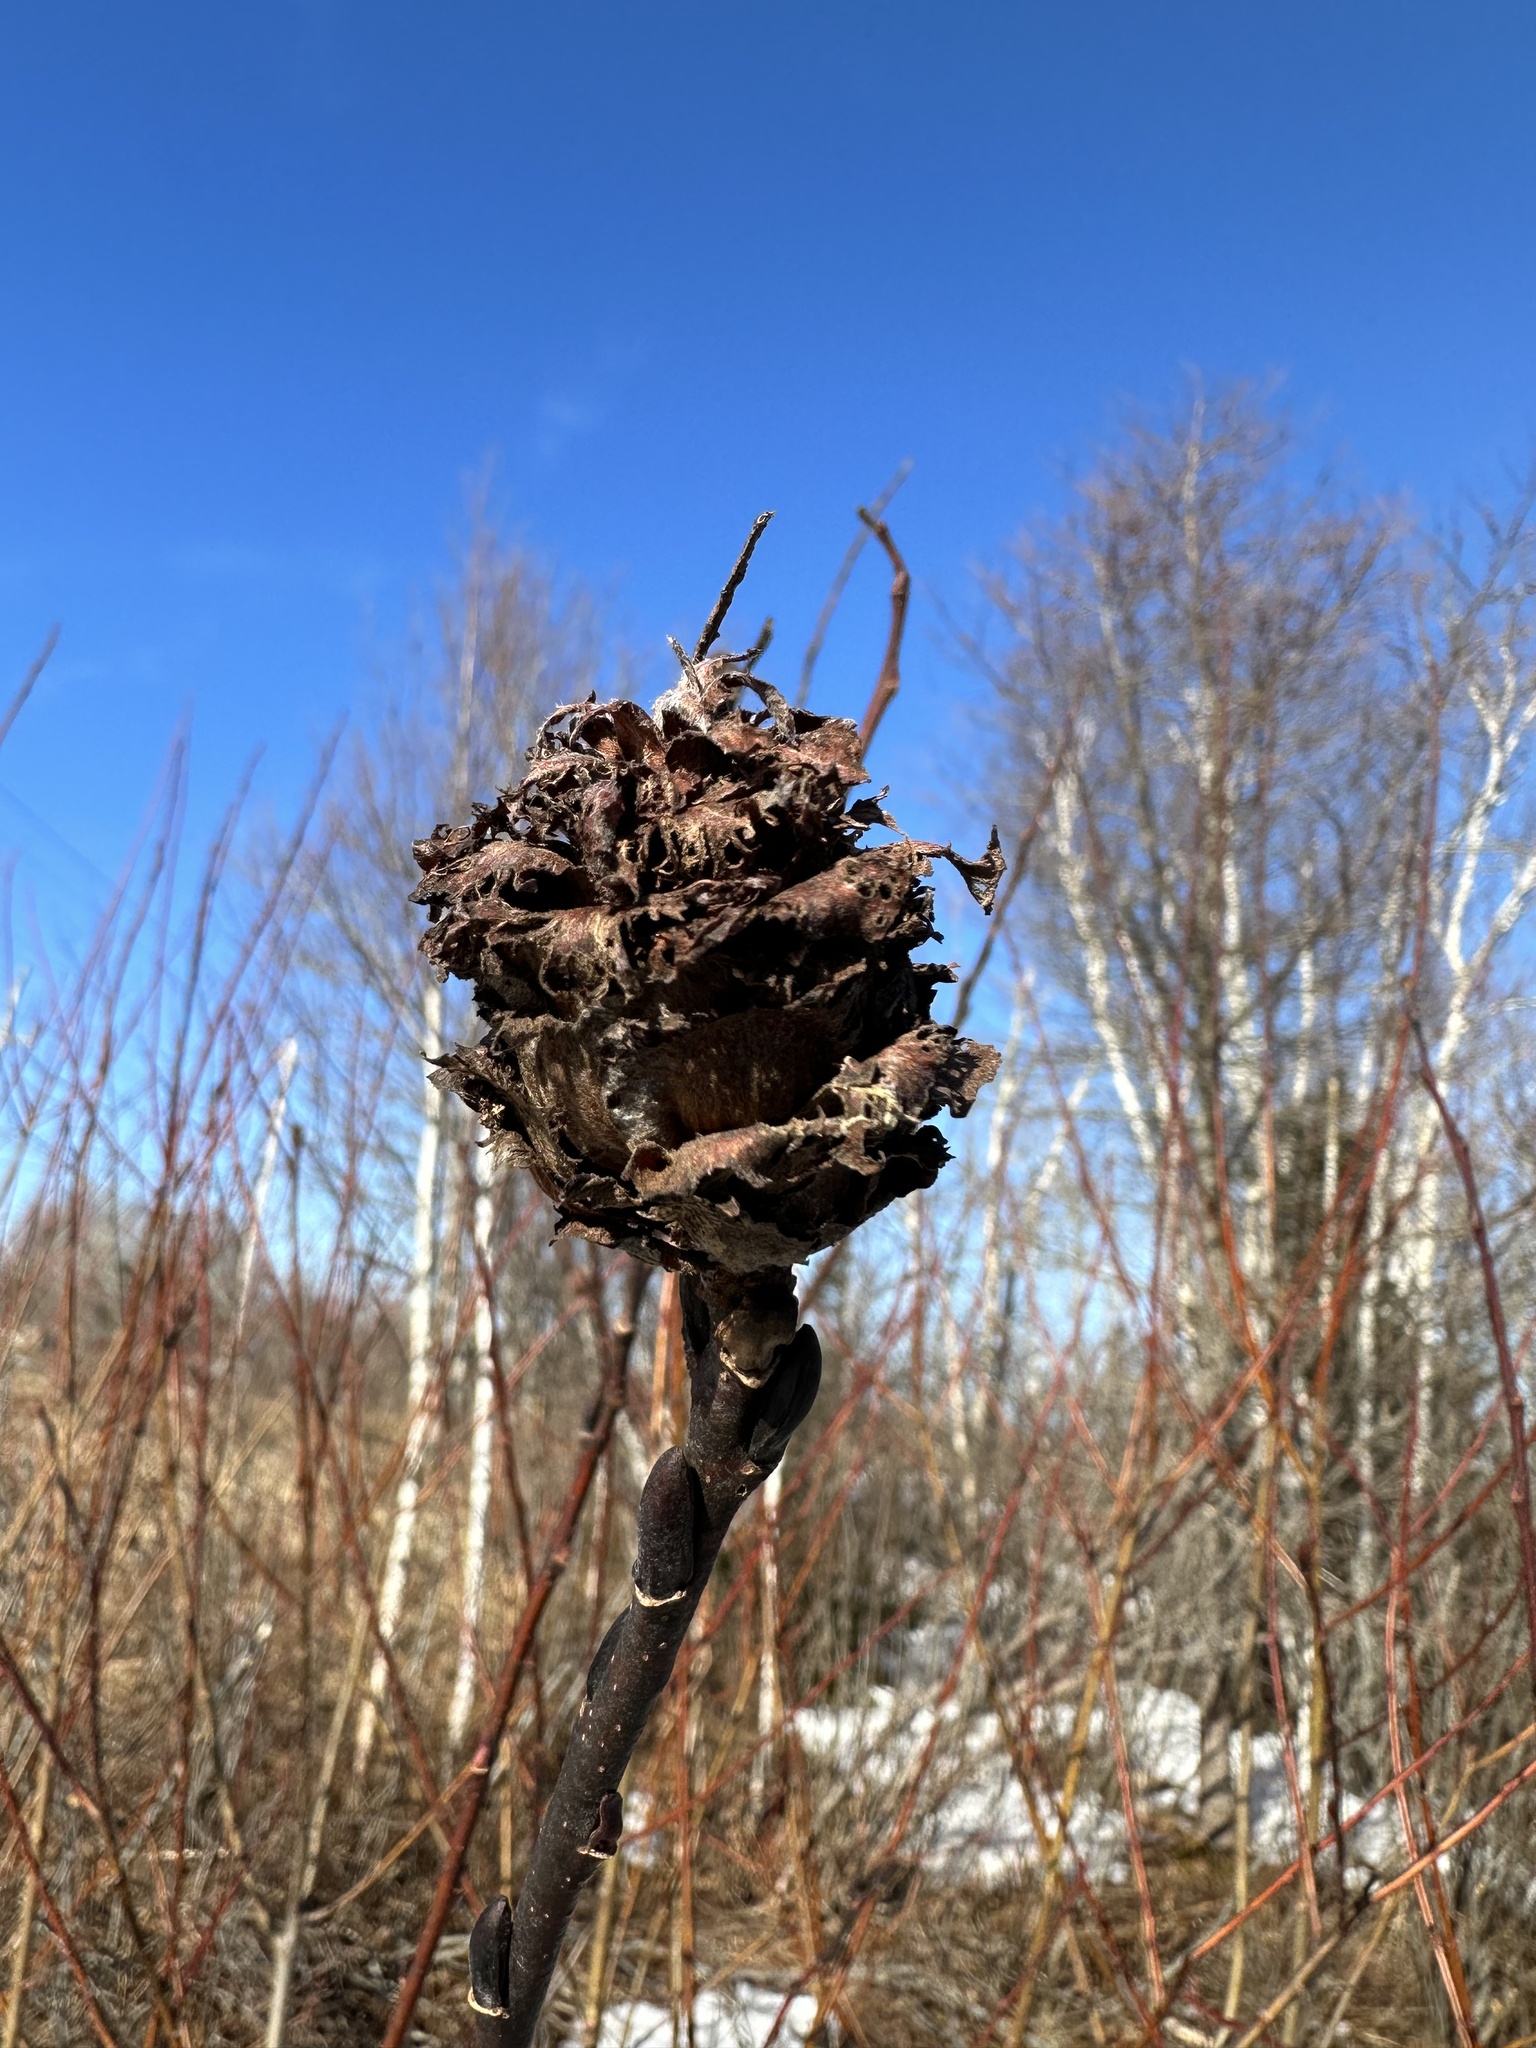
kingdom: Animalia
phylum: Arthropoda
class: Insecta
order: Diptera
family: Cecidomyiidae
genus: Rabdophaga
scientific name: Rabdophaga strobiloides
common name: Willow pinecone gall midge
